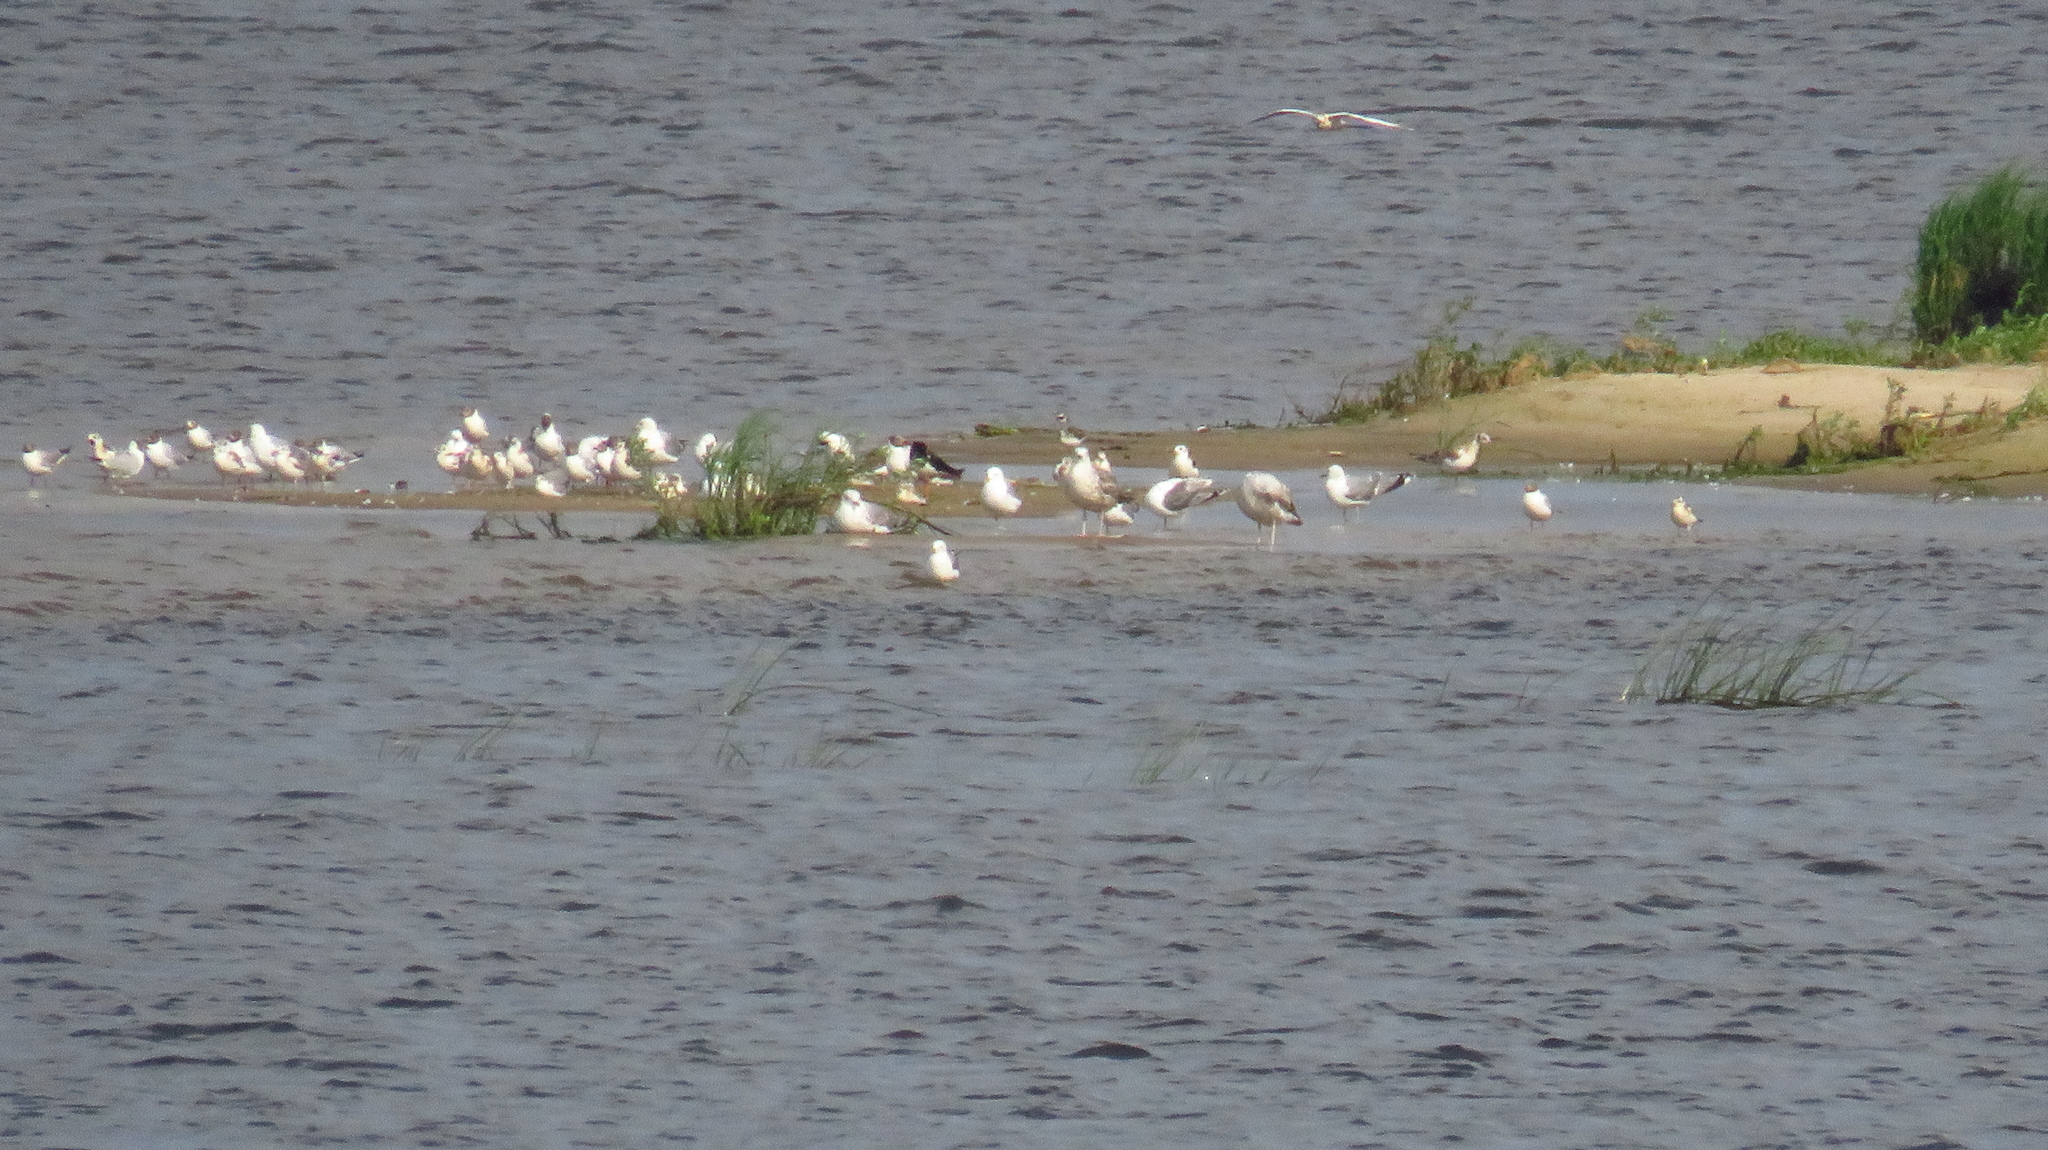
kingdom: Animalia
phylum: Chordata
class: Aves
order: Charadriiformes
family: Haematopodidae
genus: Haematopus
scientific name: Haematopus ostralegus
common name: Eurasian oystercatcher
